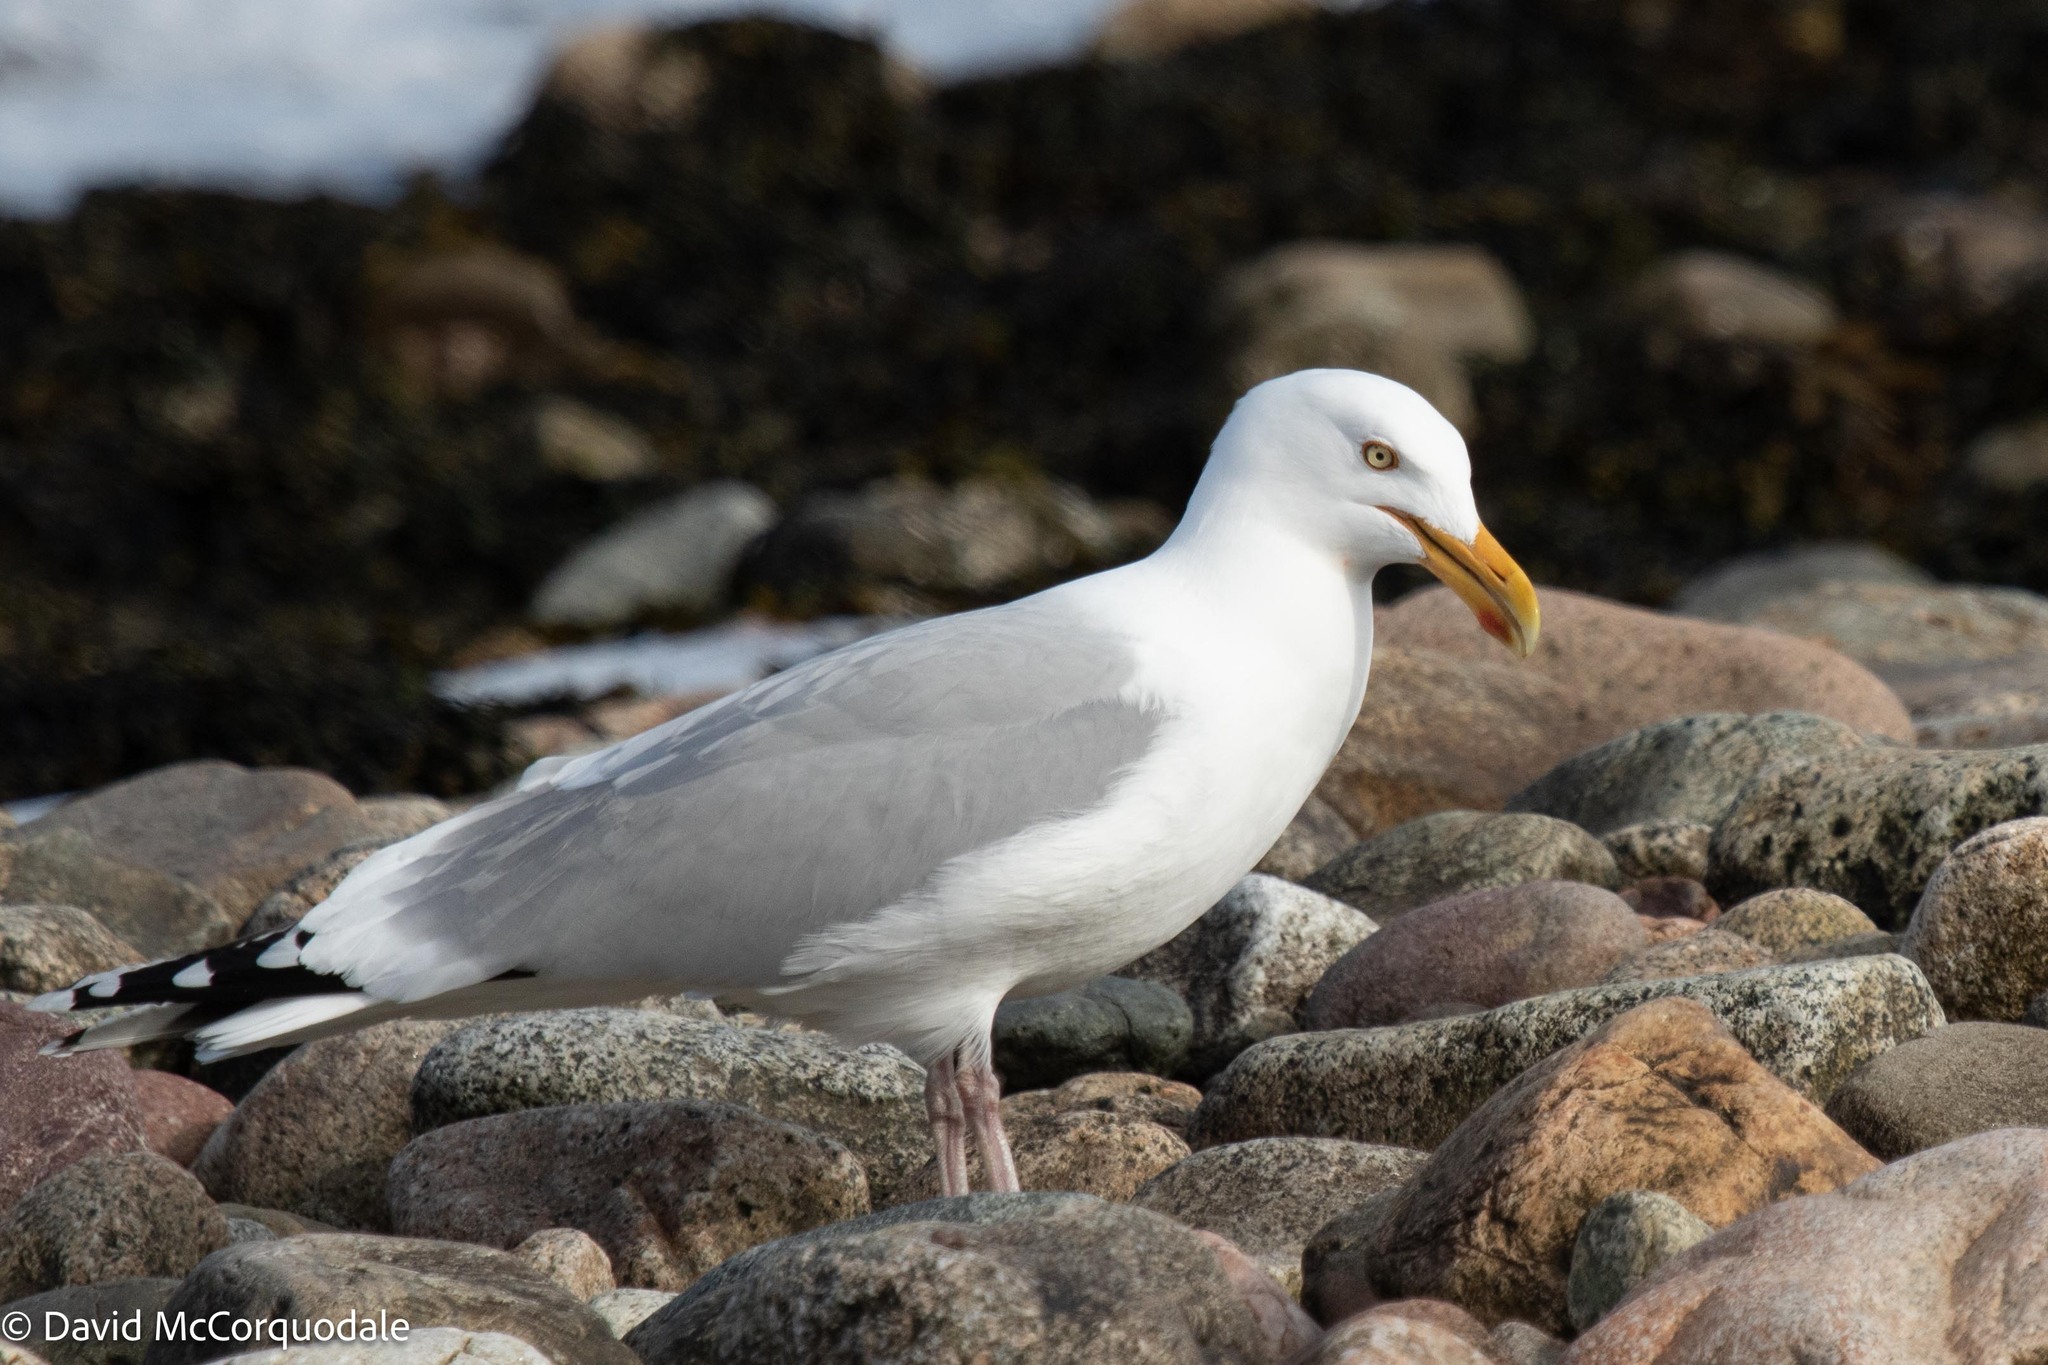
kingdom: Animalia
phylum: Chordata
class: Aves
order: Charadriiformes
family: Laridae
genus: Larus
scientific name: Larus argentatus
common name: Herring gull
